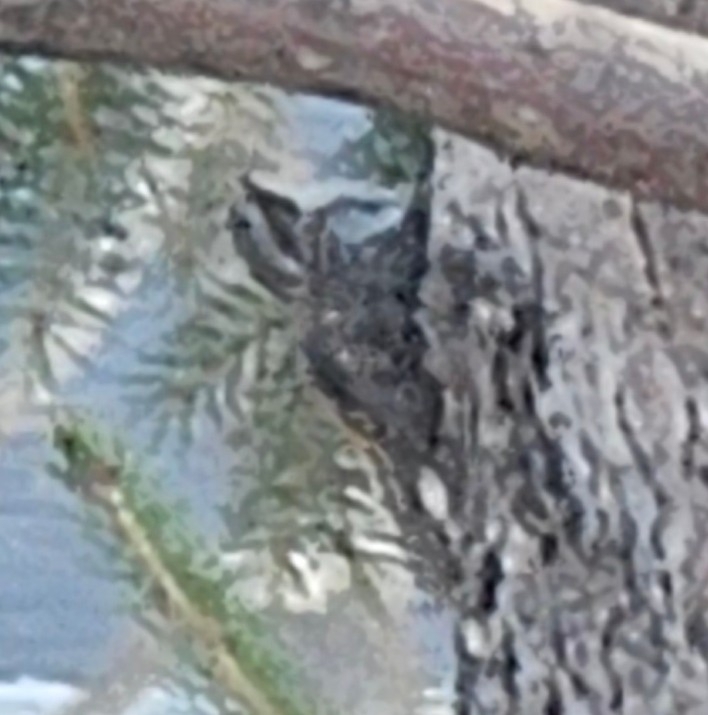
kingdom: Animalia
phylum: Chordata
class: Aves
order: Passeriformes
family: Certhiidae
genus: Certhia
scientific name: Certhia americana
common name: Brown creeper
